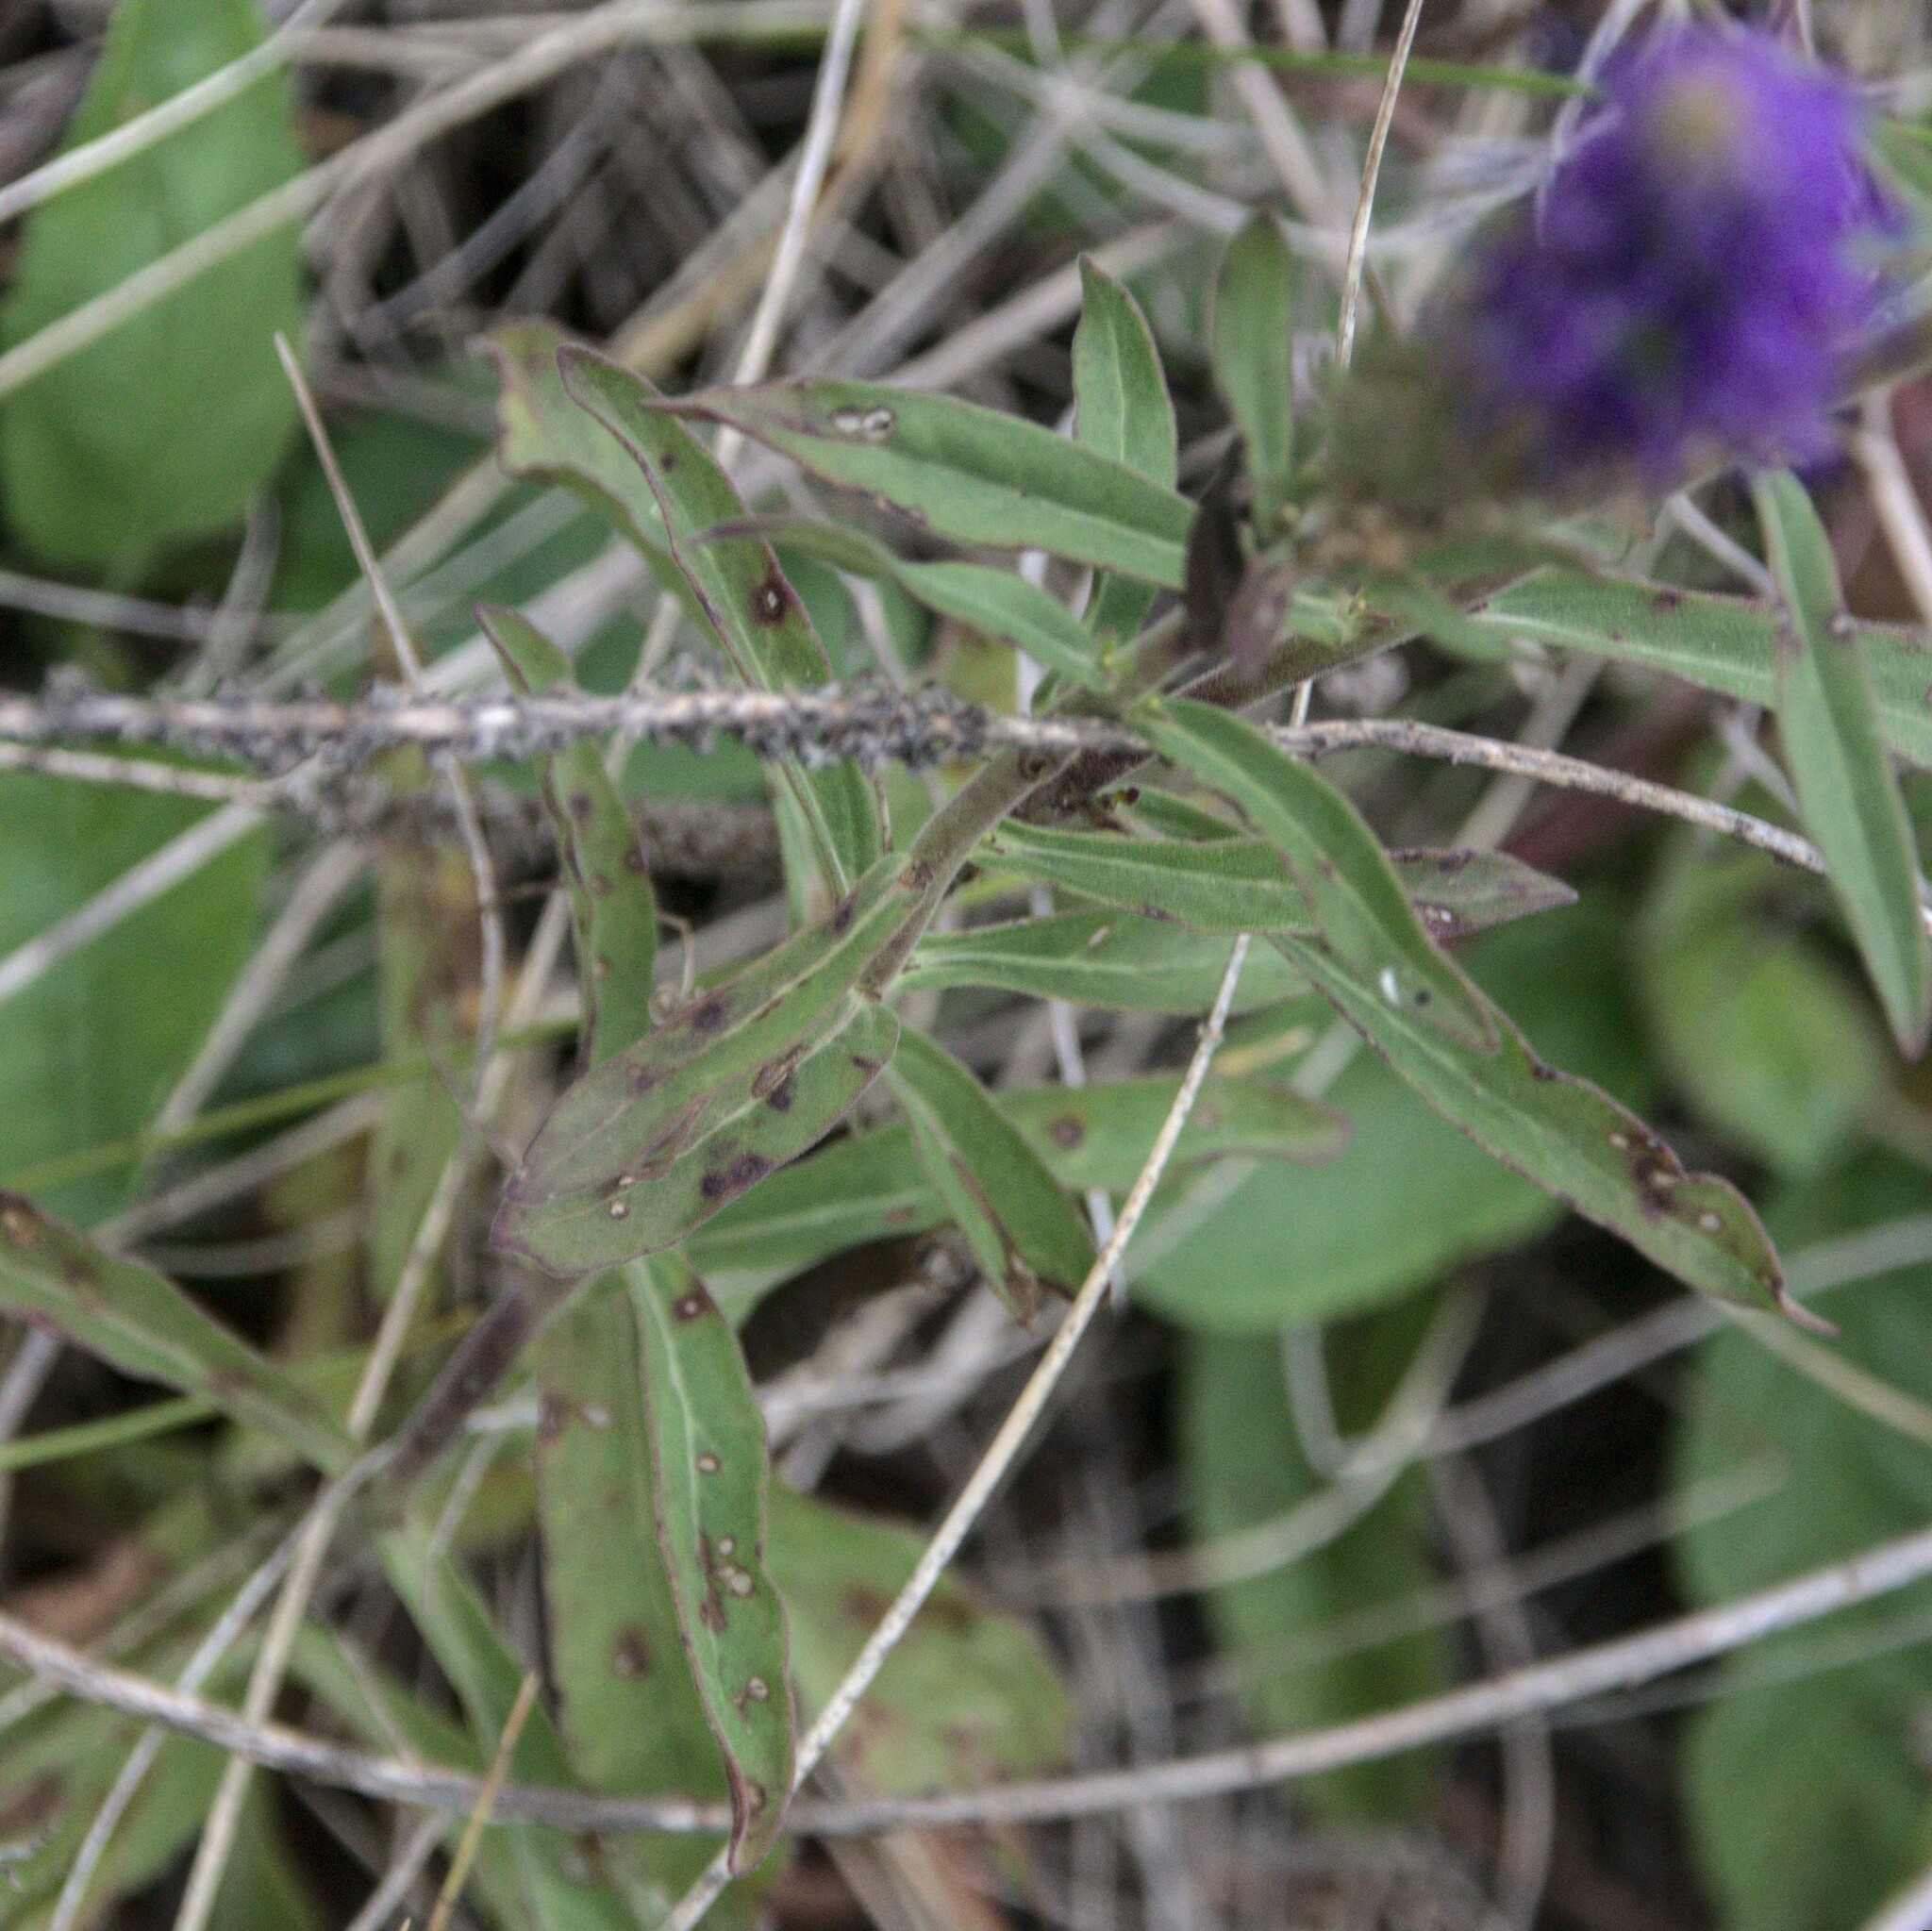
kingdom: Plantae
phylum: Tracheophyta
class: Magnoliopsida
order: Lamiales
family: Plantaginaceae
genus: Veronica
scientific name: Veronica spicata
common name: Spiked speedwell
